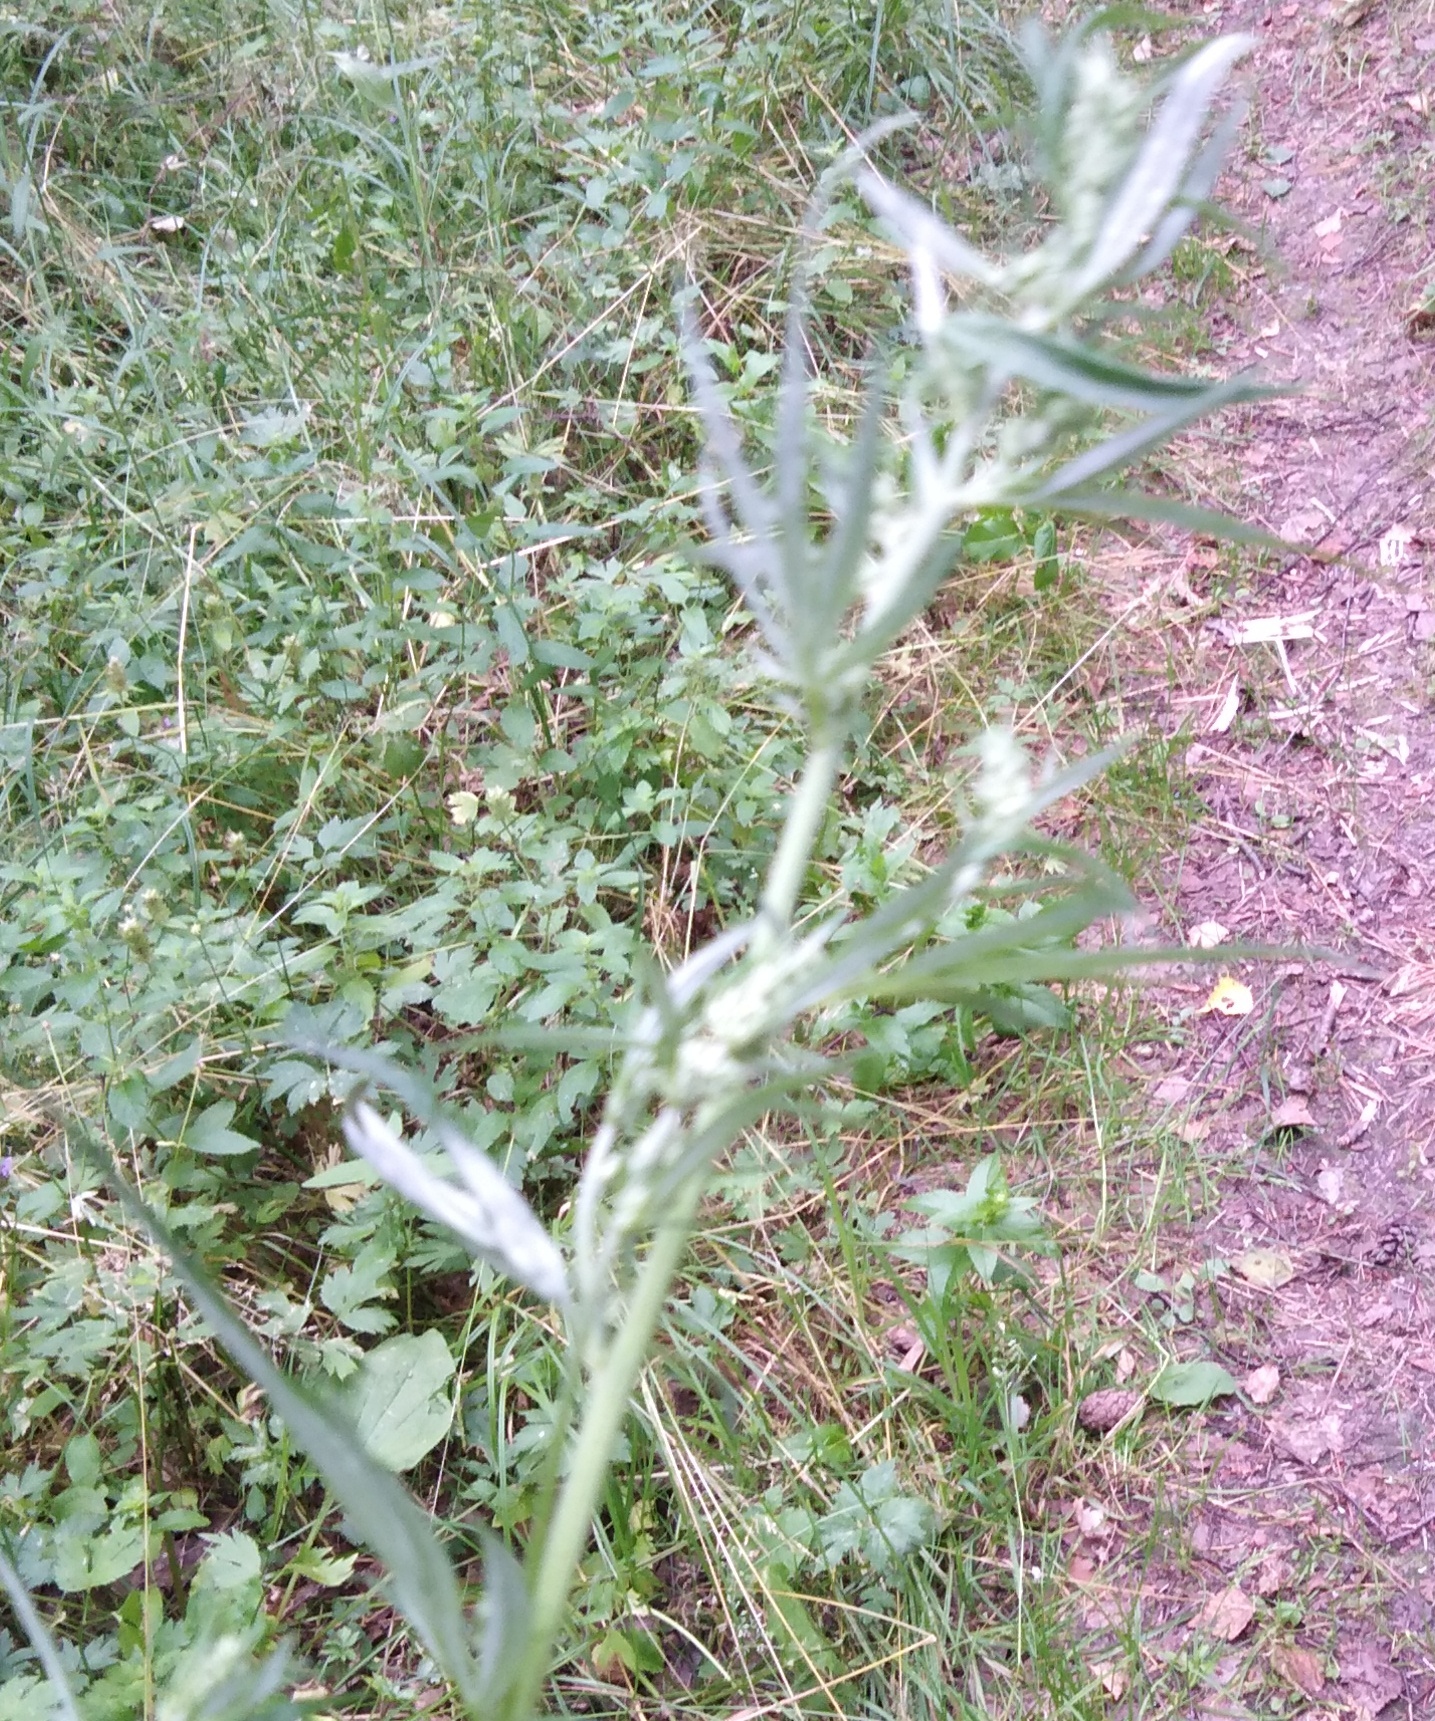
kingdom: Plantae
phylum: Tracheophyta
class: Magnoliopsida
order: Asterales
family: Asteraceae
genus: Artemisia
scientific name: Artemisia vulgaris
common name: Mugwort
